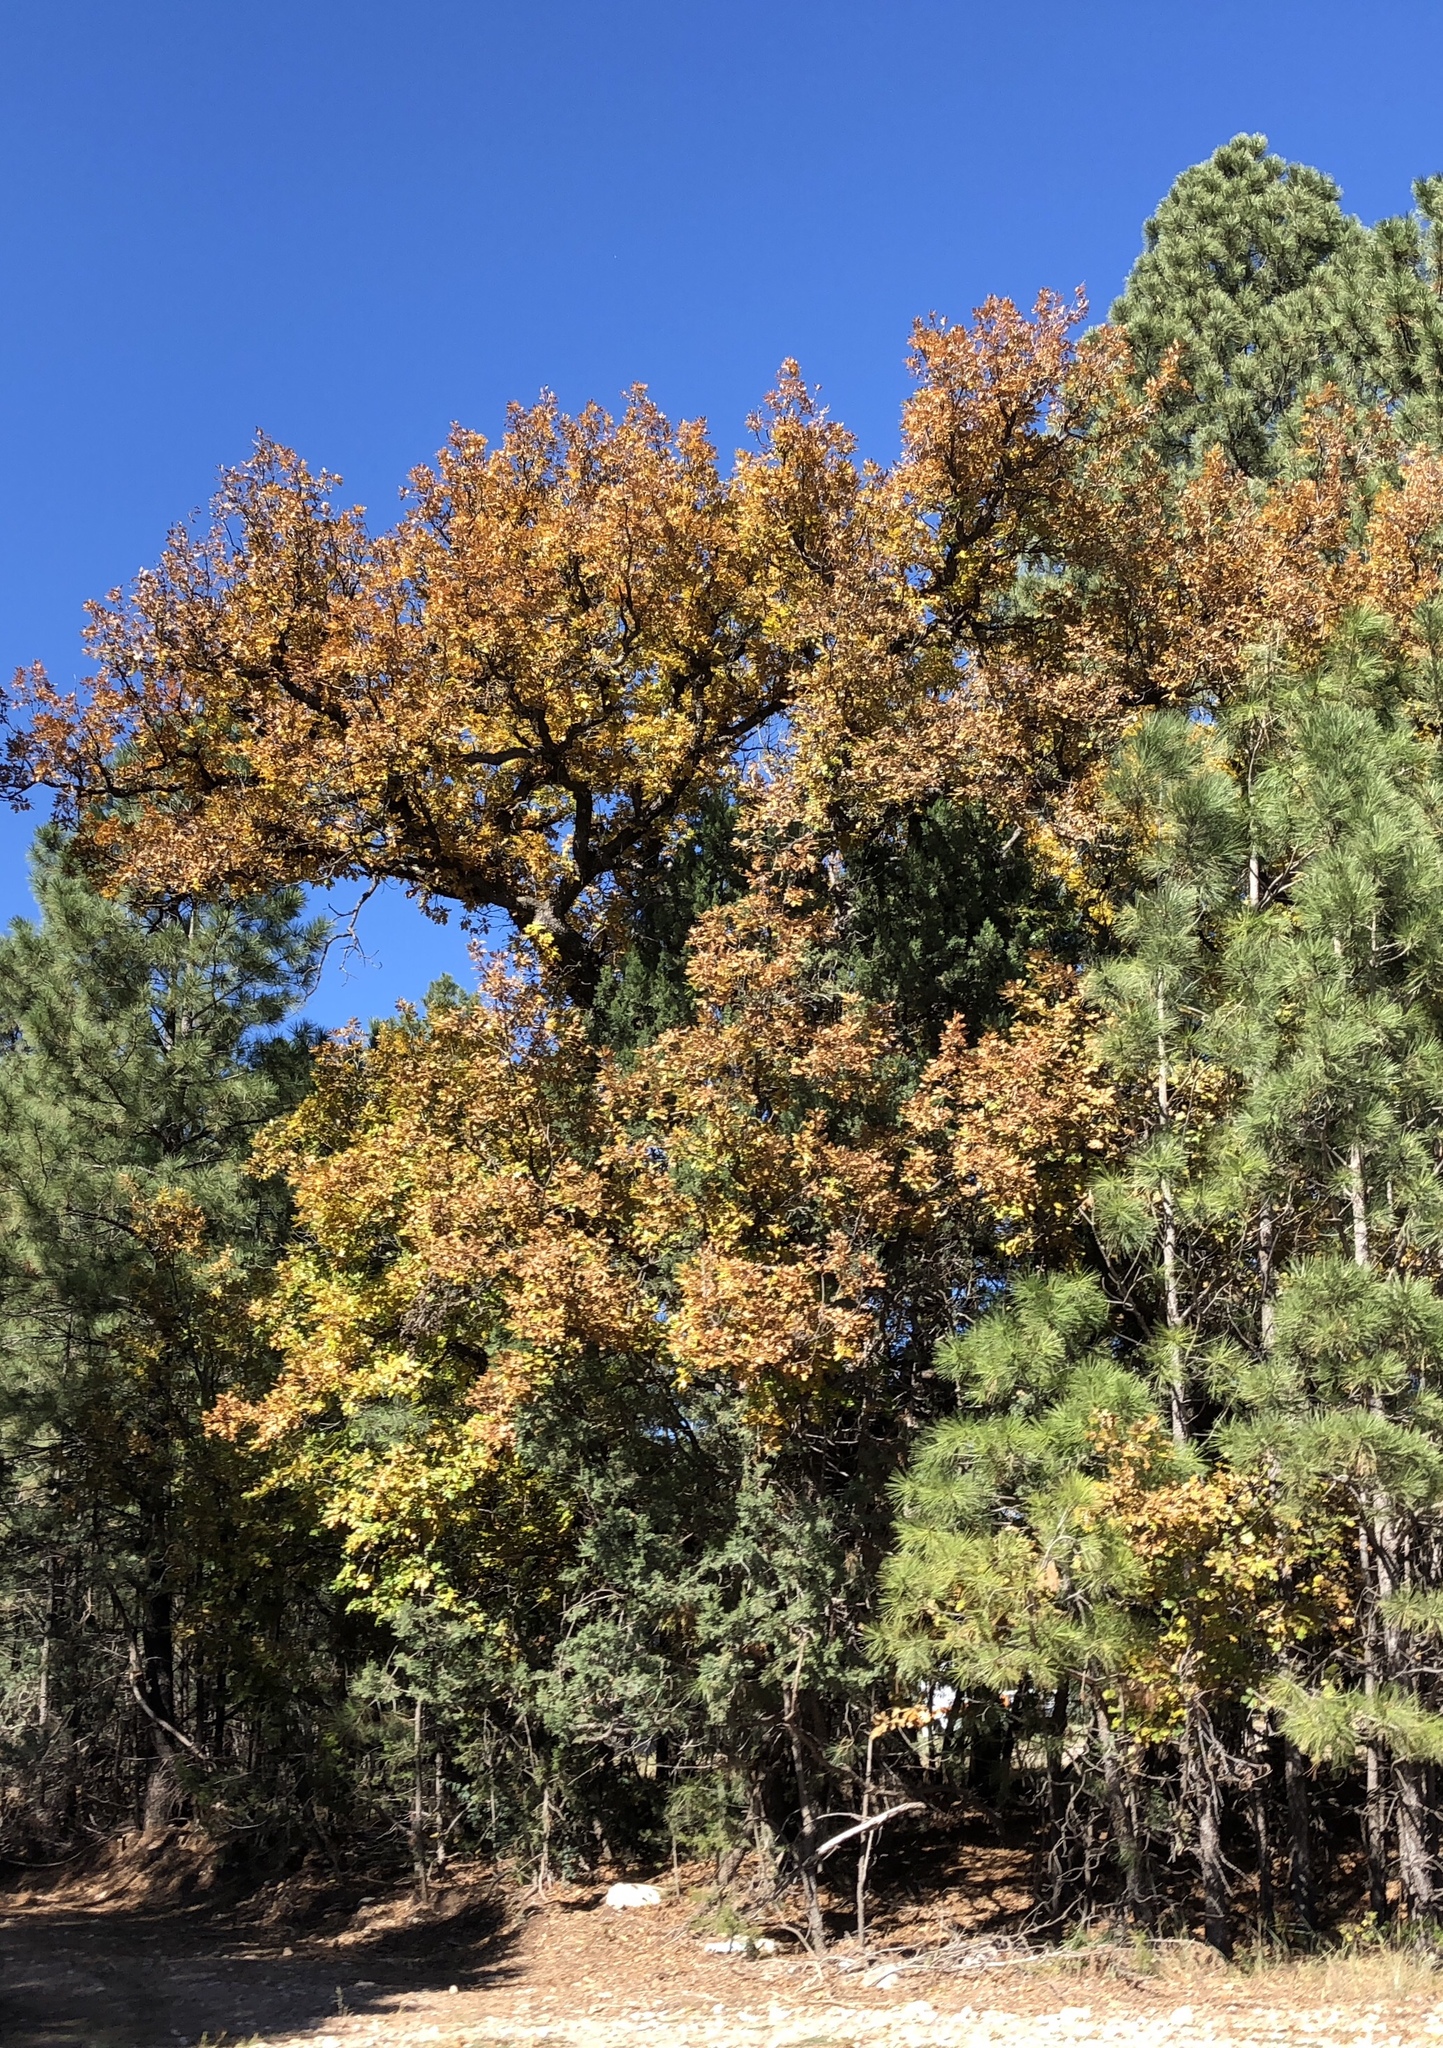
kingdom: Plantae
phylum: Tracheophyta
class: Magnoliopsida
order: Fagales
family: Fagaceae
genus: Quercus
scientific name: Quercus gambelii
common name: Gambel oak
